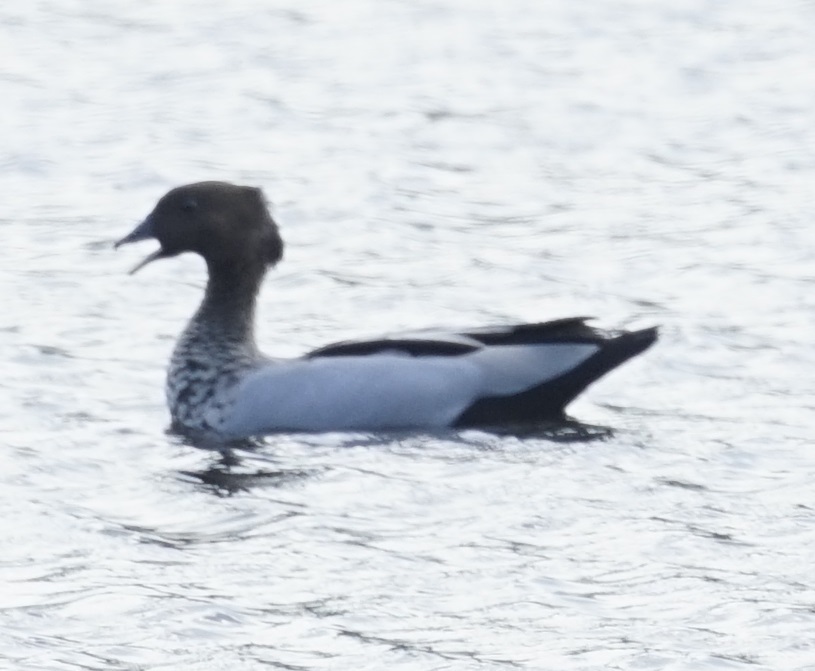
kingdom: Animalia
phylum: Chordata
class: Aves
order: Anseriformes
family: Anatidae
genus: Chenonetta
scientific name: Chenonetta jubata
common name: Maned duck
